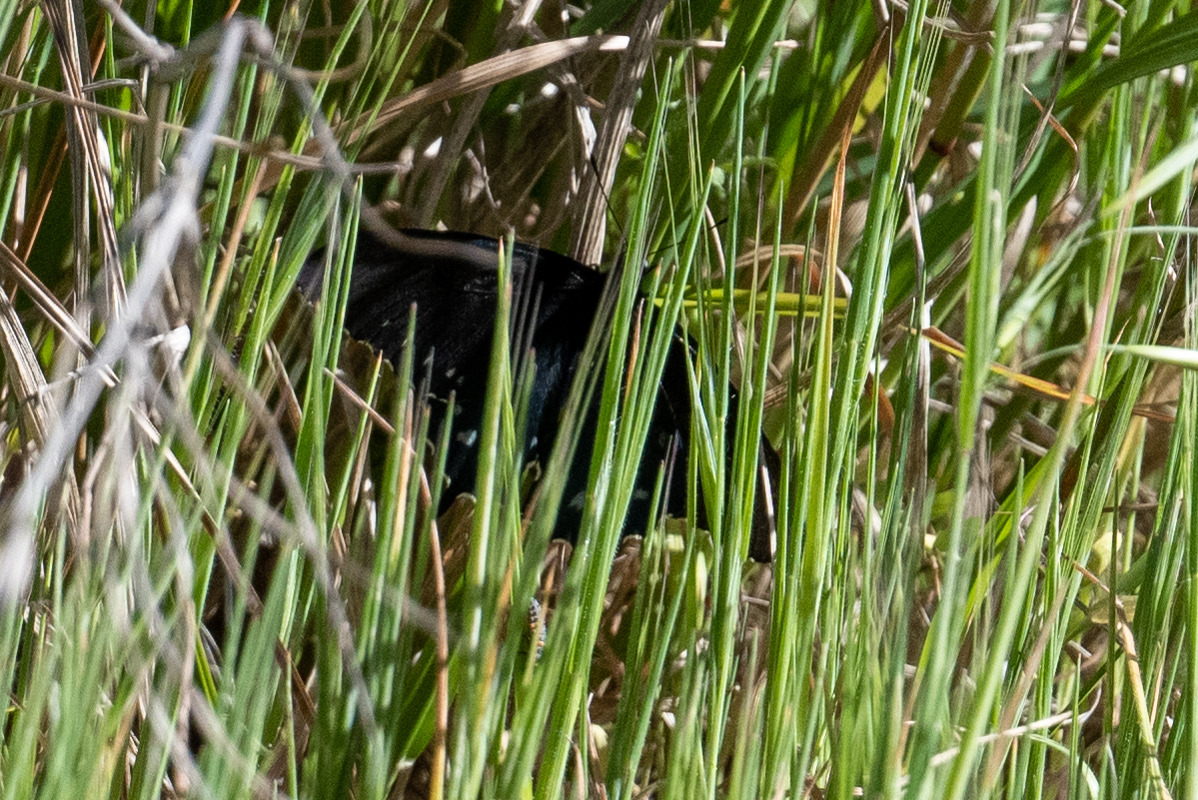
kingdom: Animalia
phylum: Arthropoda
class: Insecta
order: Lepidoptera
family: Papilionidae
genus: Battus
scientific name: Battus philenor
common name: Pipevine swallowtail
